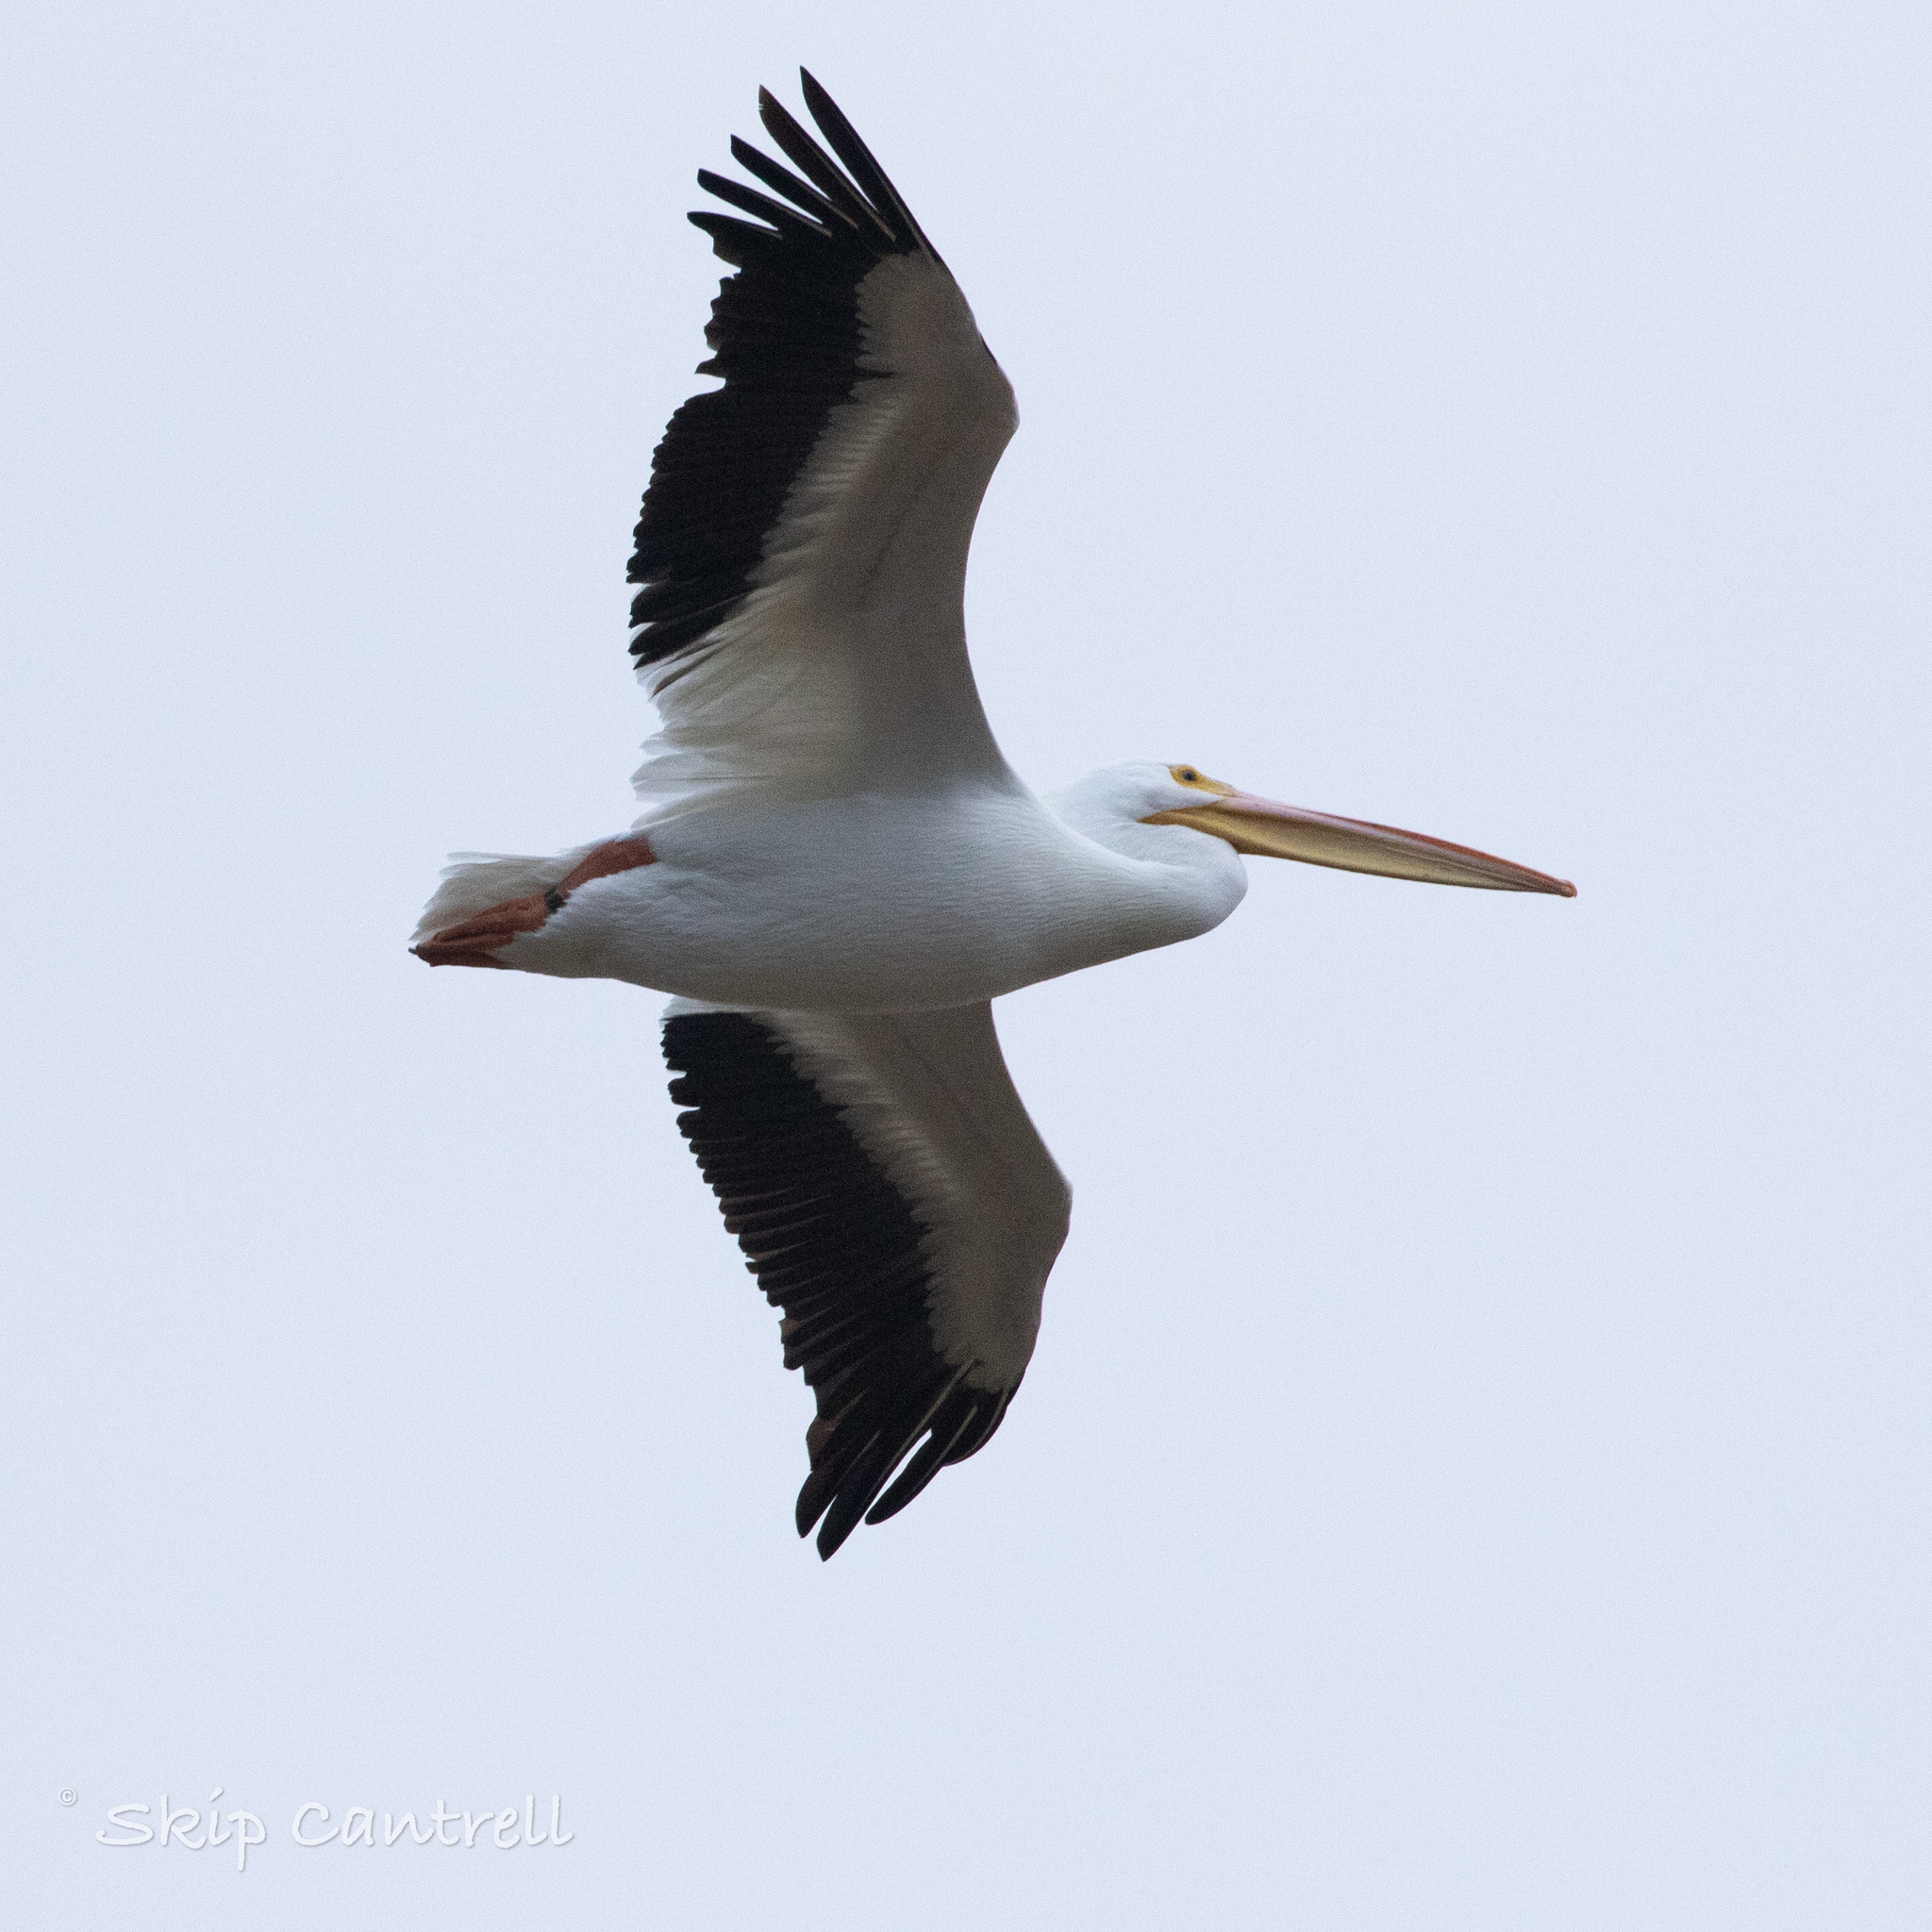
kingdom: Animalia
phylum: Chordata
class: Aves
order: Pelecaniformes
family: Pelecanidae
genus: Pelecanus
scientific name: Pelecanus erythrorhynchos
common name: American white pelican
